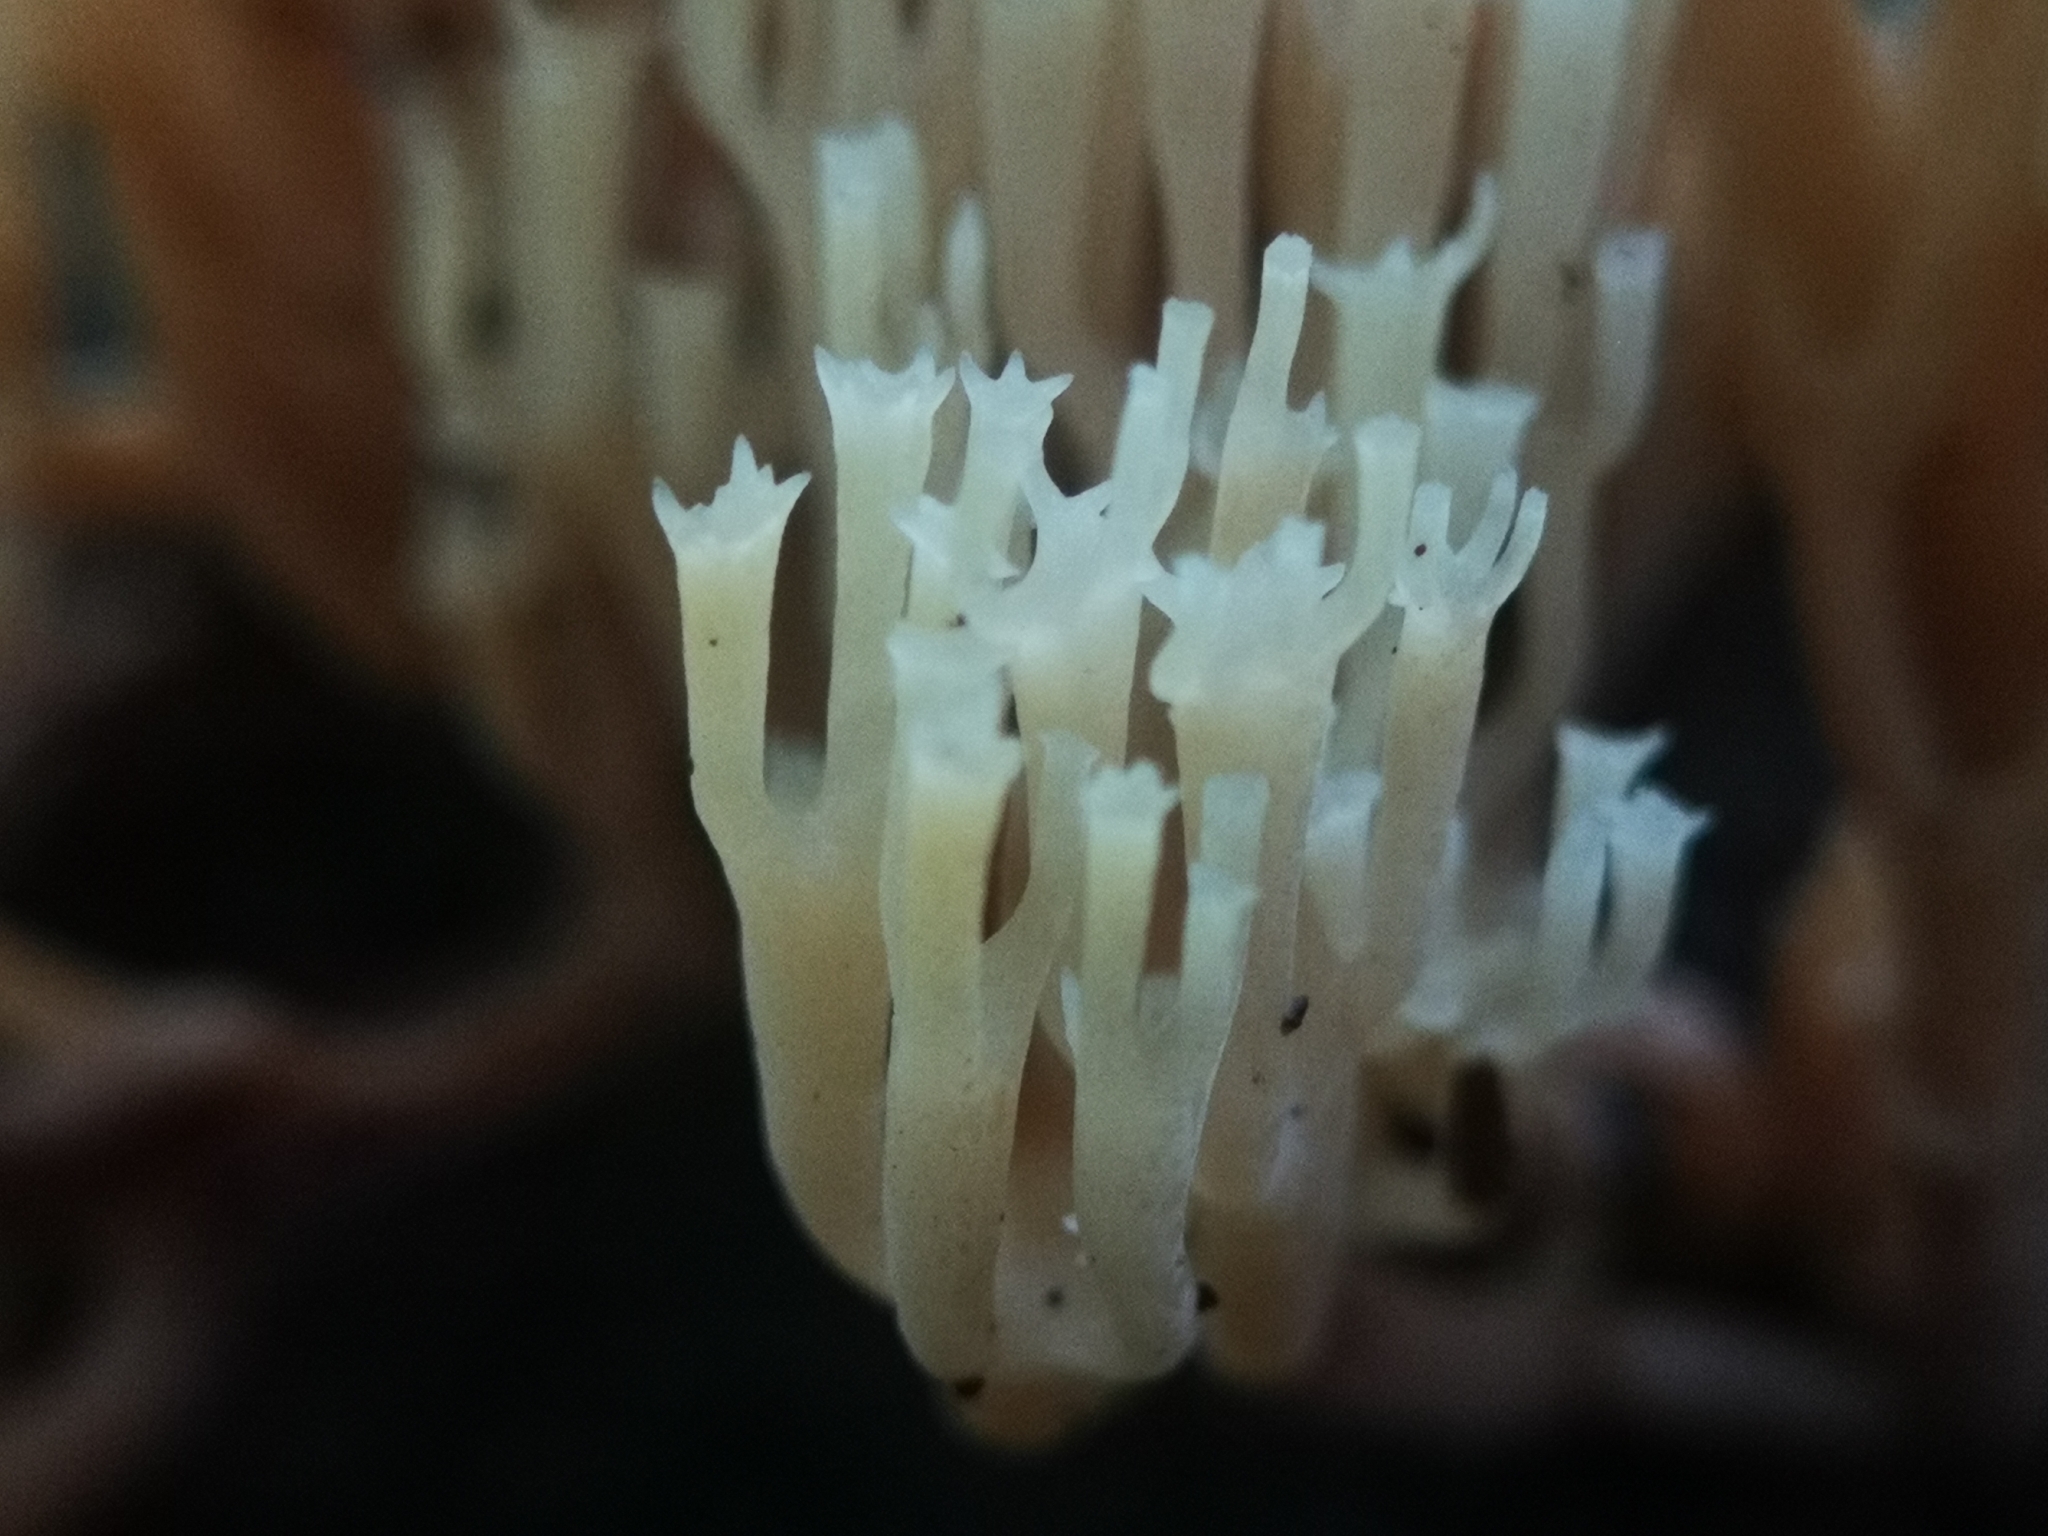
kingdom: Fungi
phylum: Basidiomycota
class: Agaricomycetes
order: Russulales
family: Auriscalpiaceae
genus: Artomyces
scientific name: Artomyces pyxidatus
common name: Crown-tipped coral fungus
